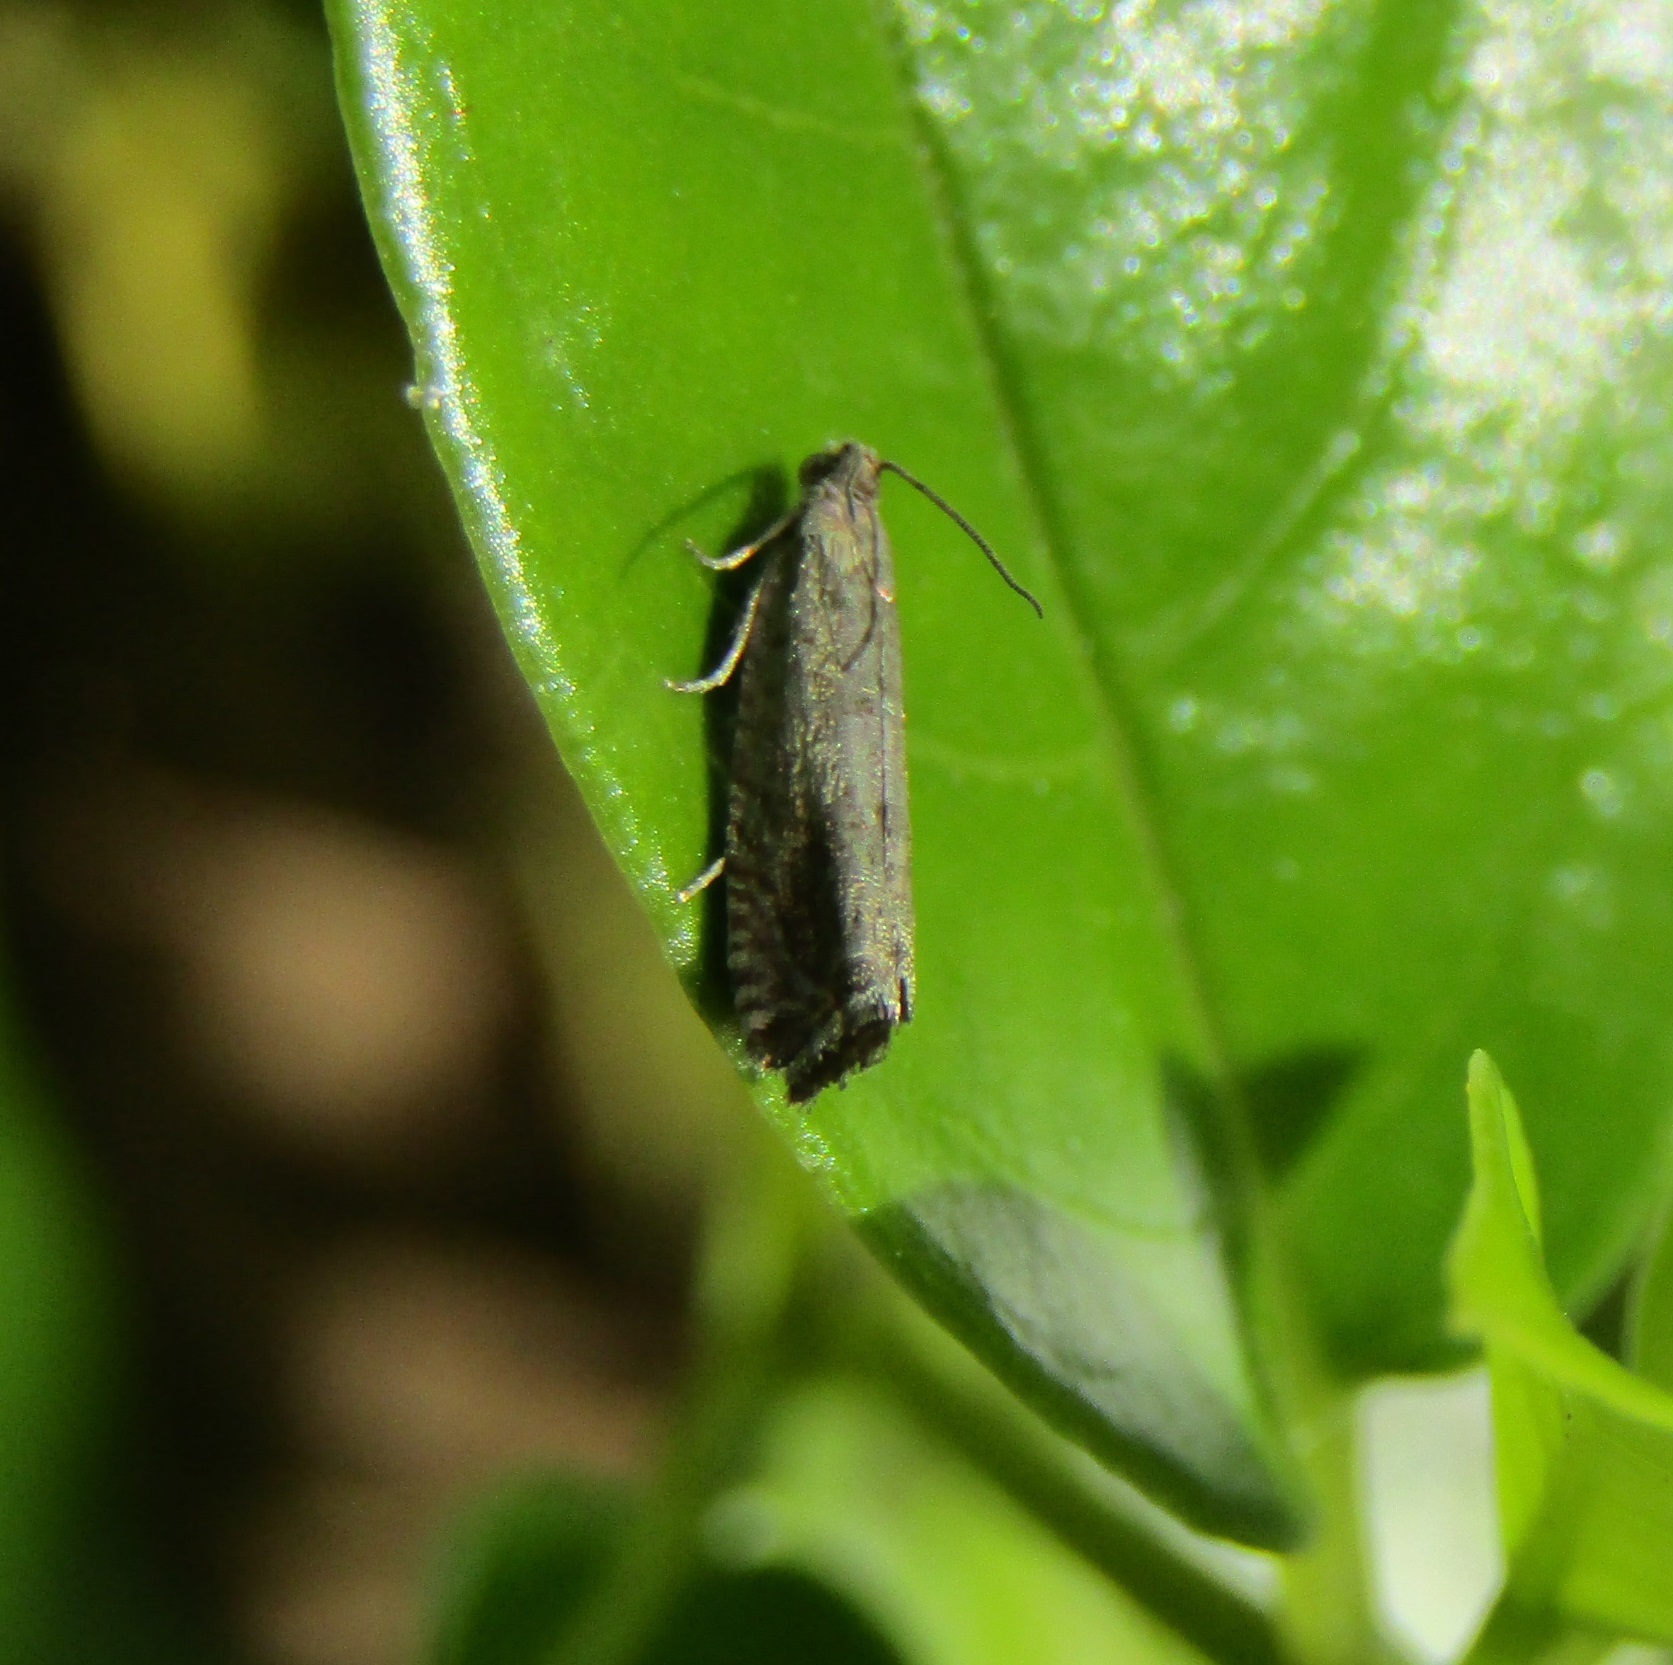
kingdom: Animalia
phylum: Arthropoda
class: Insecta
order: Lepidoptera
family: Tortricidae
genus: Cydia
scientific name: Cydia succedana
